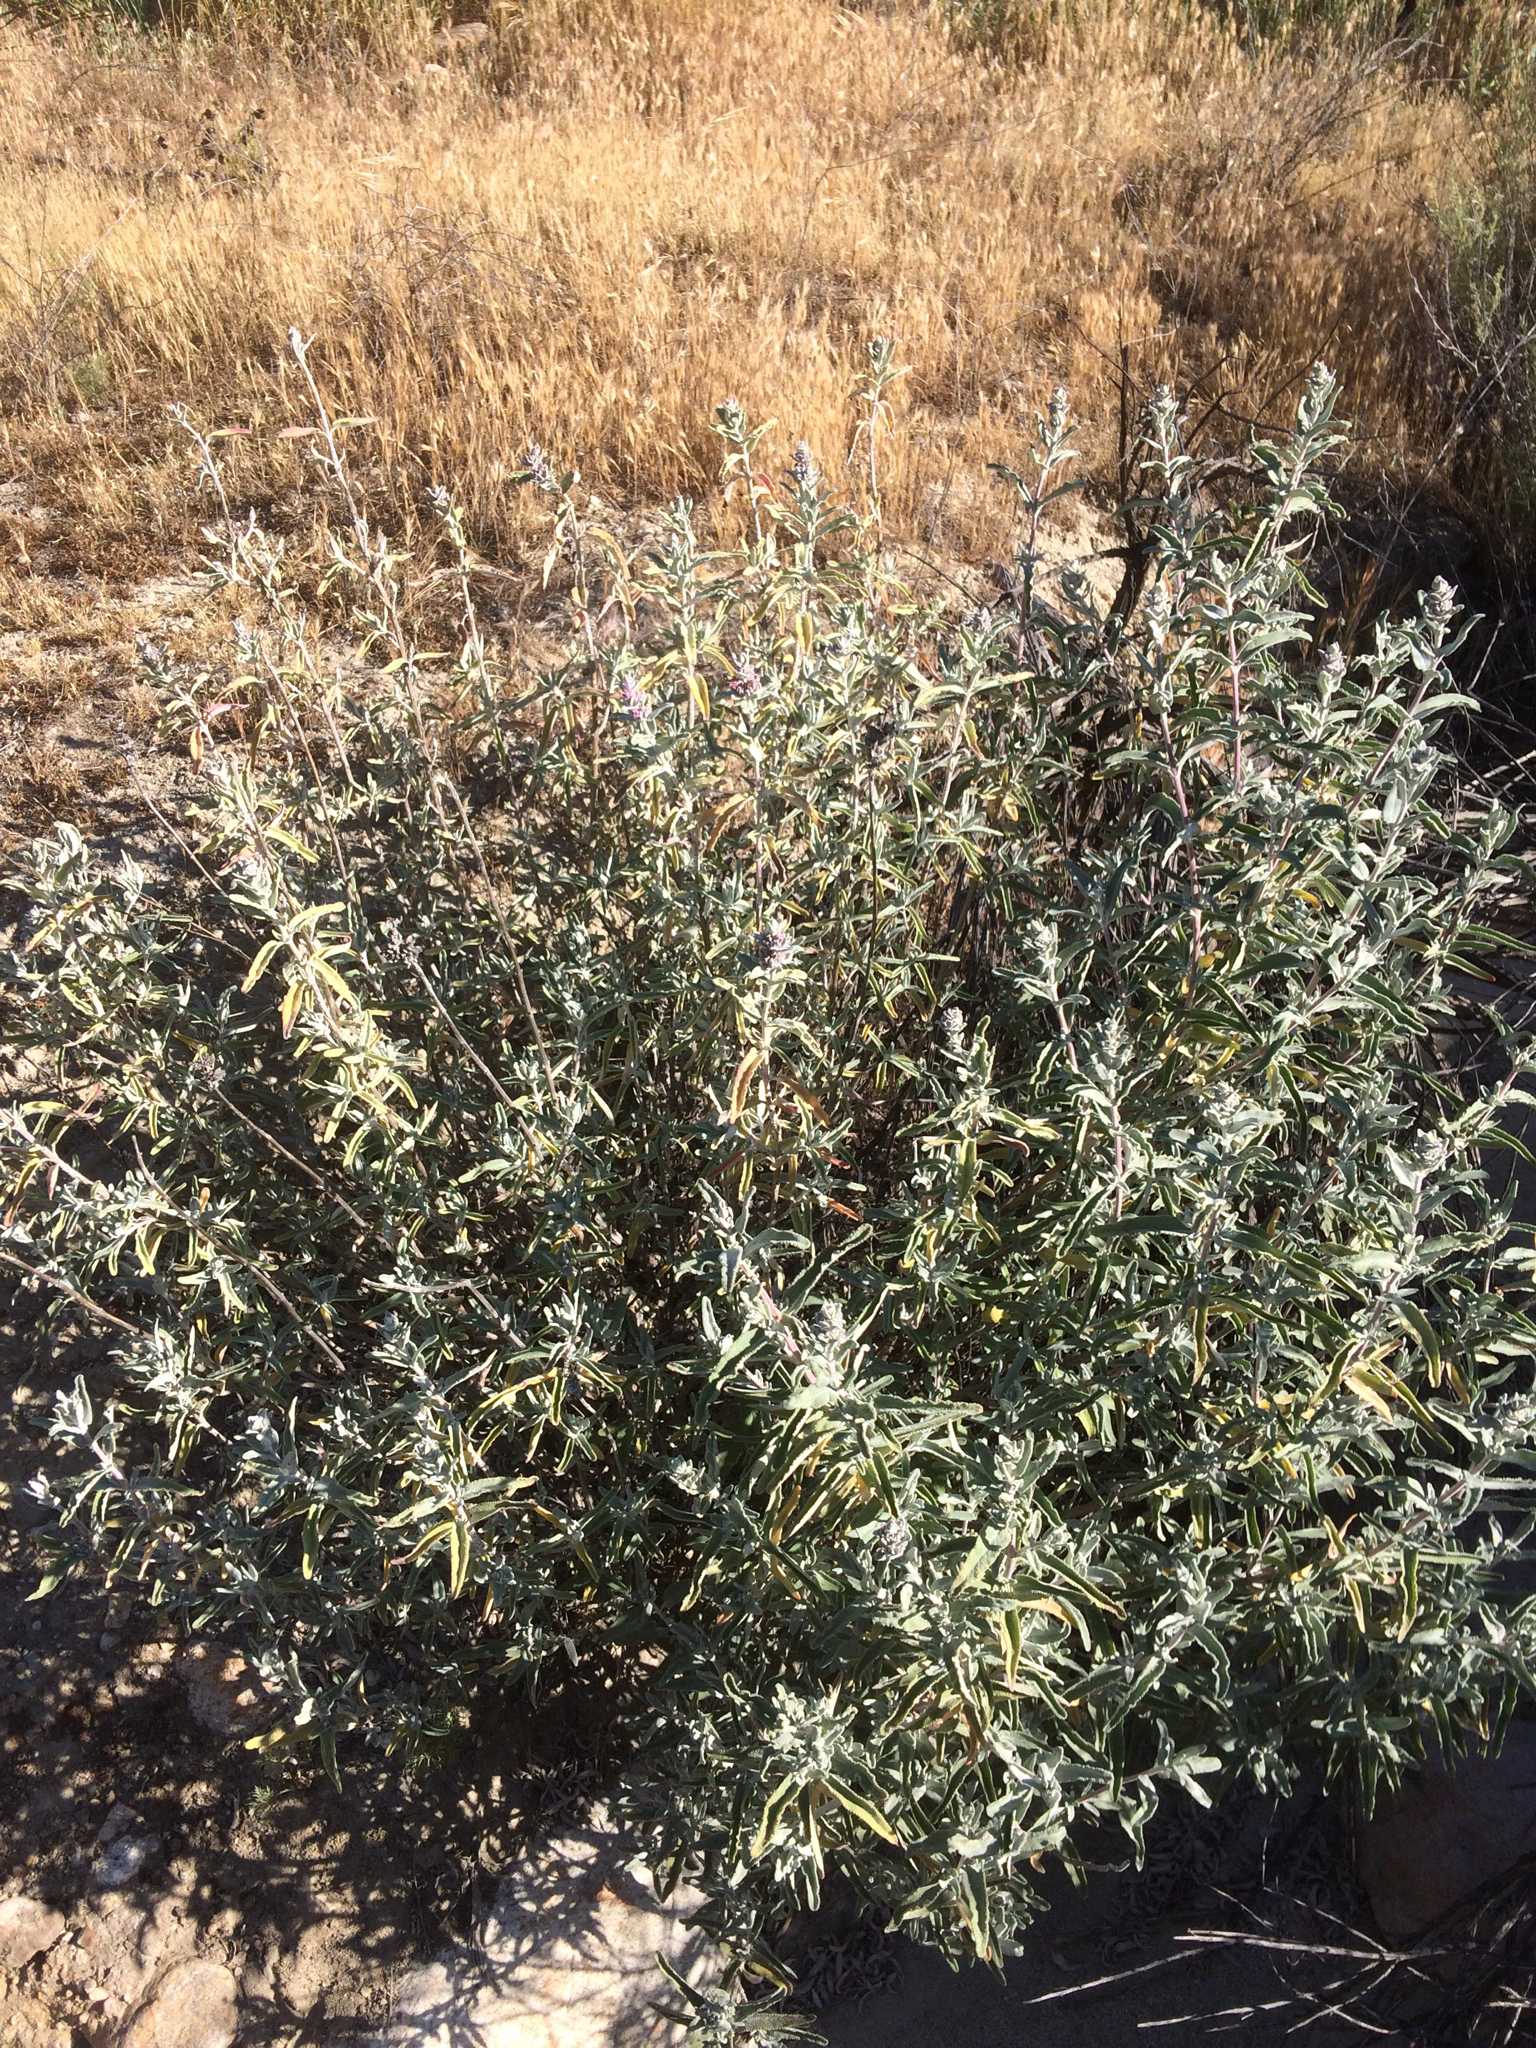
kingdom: Plantae
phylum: Tracheophyta
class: Magnoliopsida
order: Lamiales
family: Lamiaceae
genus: Salvia
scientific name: Salvia leucophylla
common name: Purple sage
